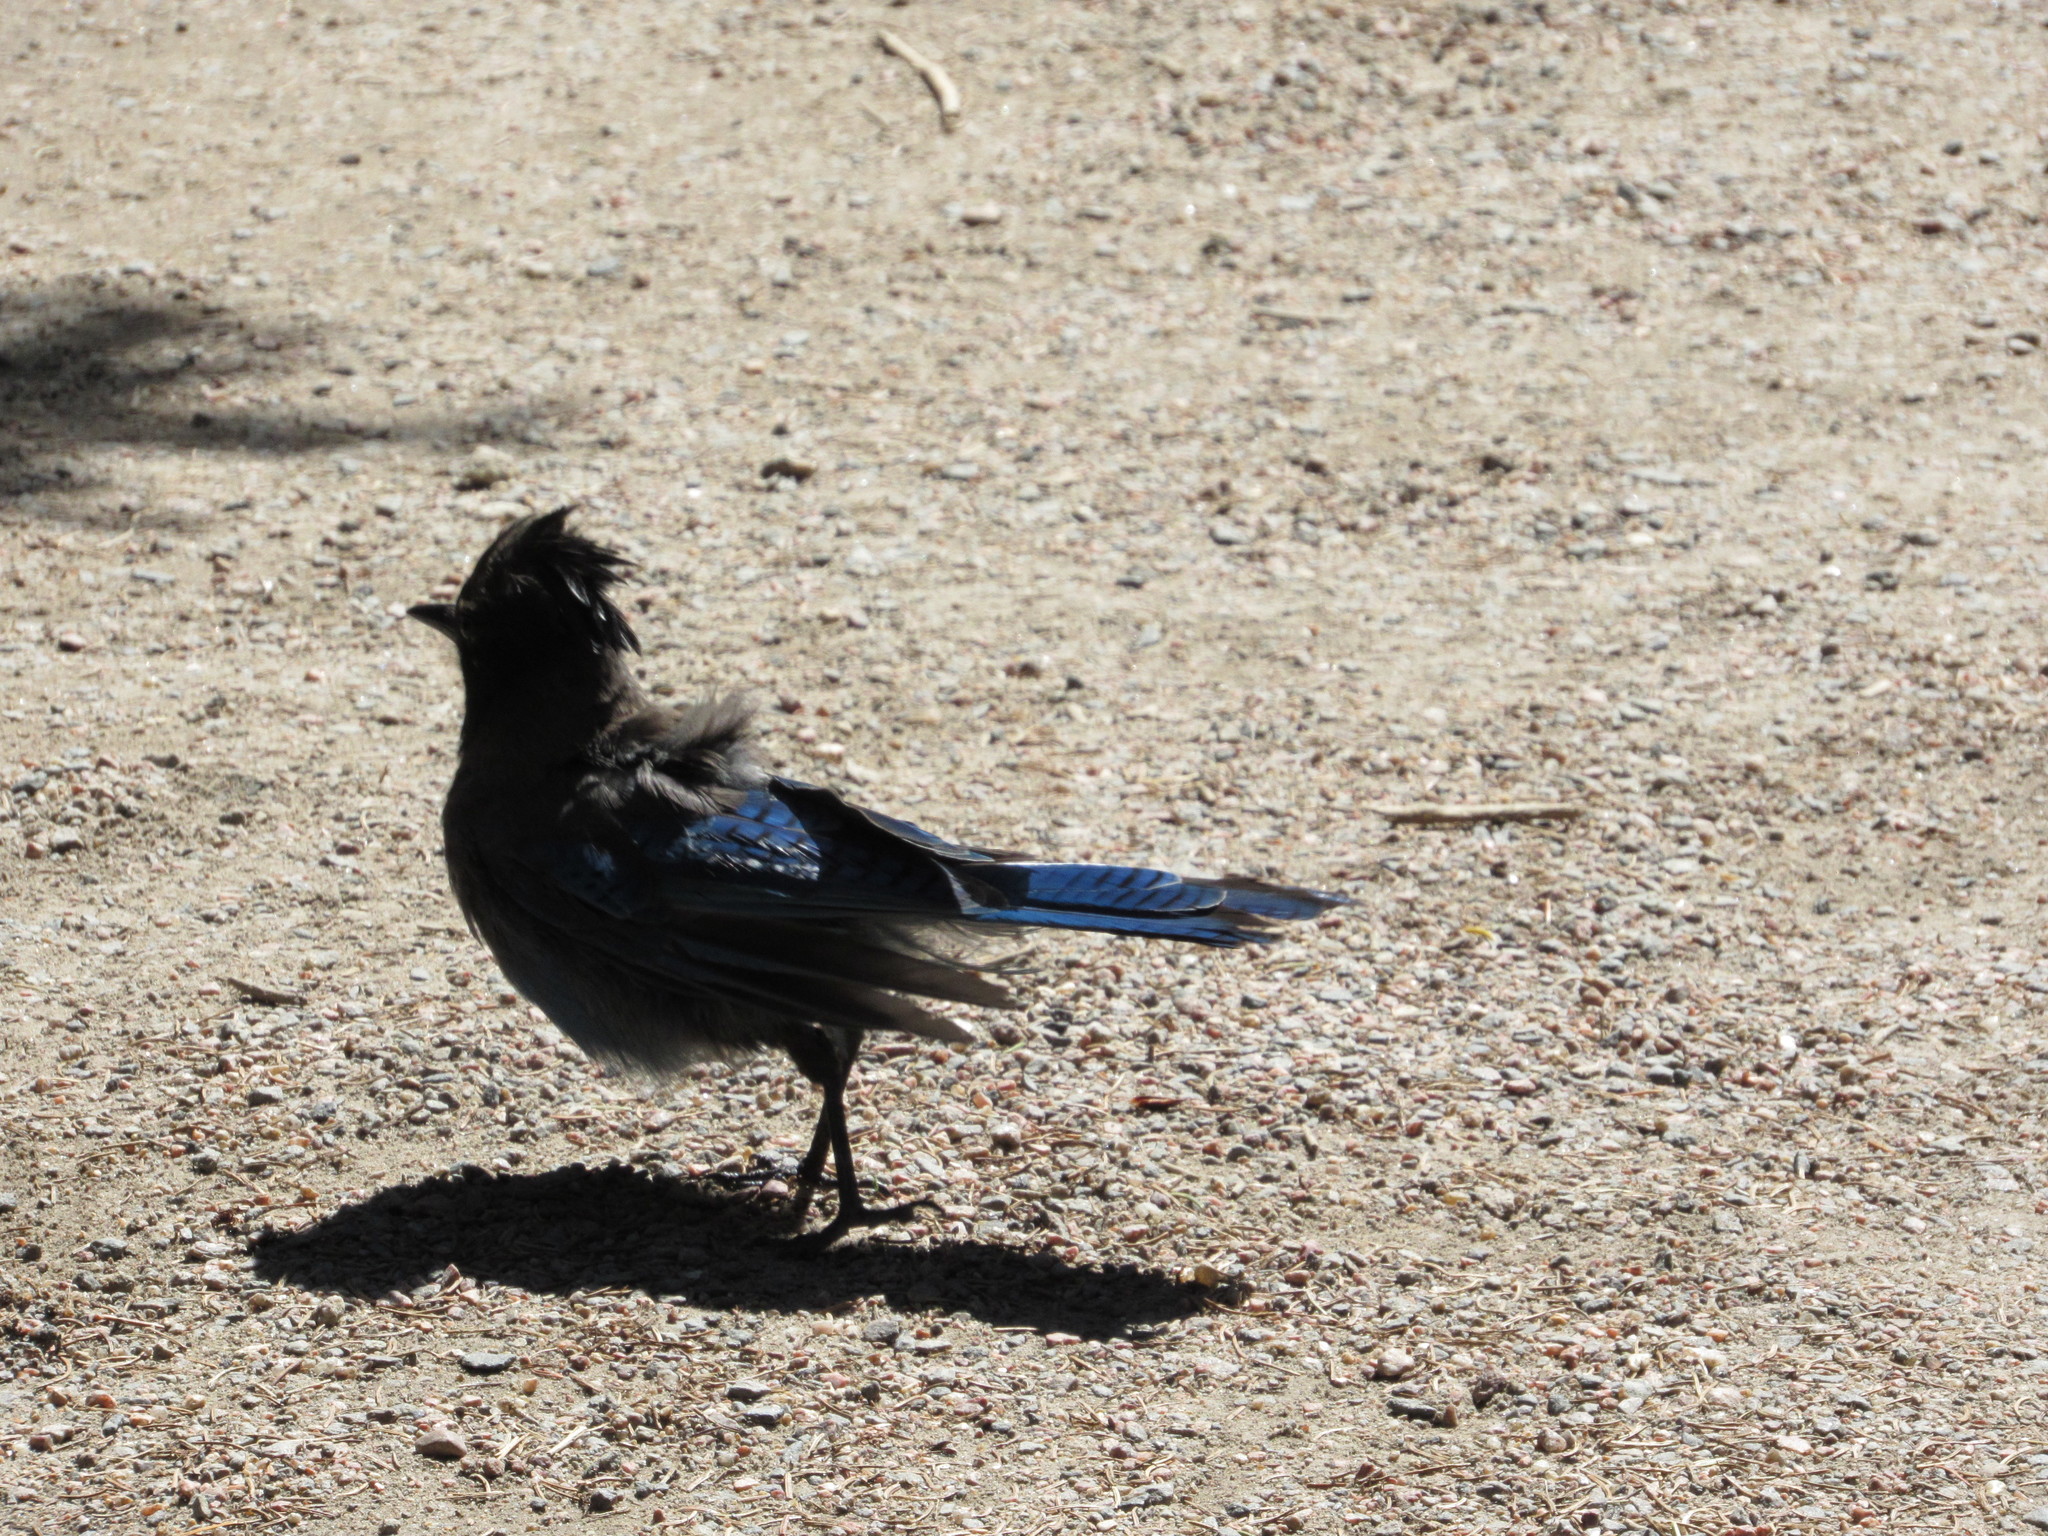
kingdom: Animalia
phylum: Chordata
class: Aves
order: Passeriformes
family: Corvidae
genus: Cyanocitta
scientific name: Cyanocitta stelleri
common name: Steller's jay
